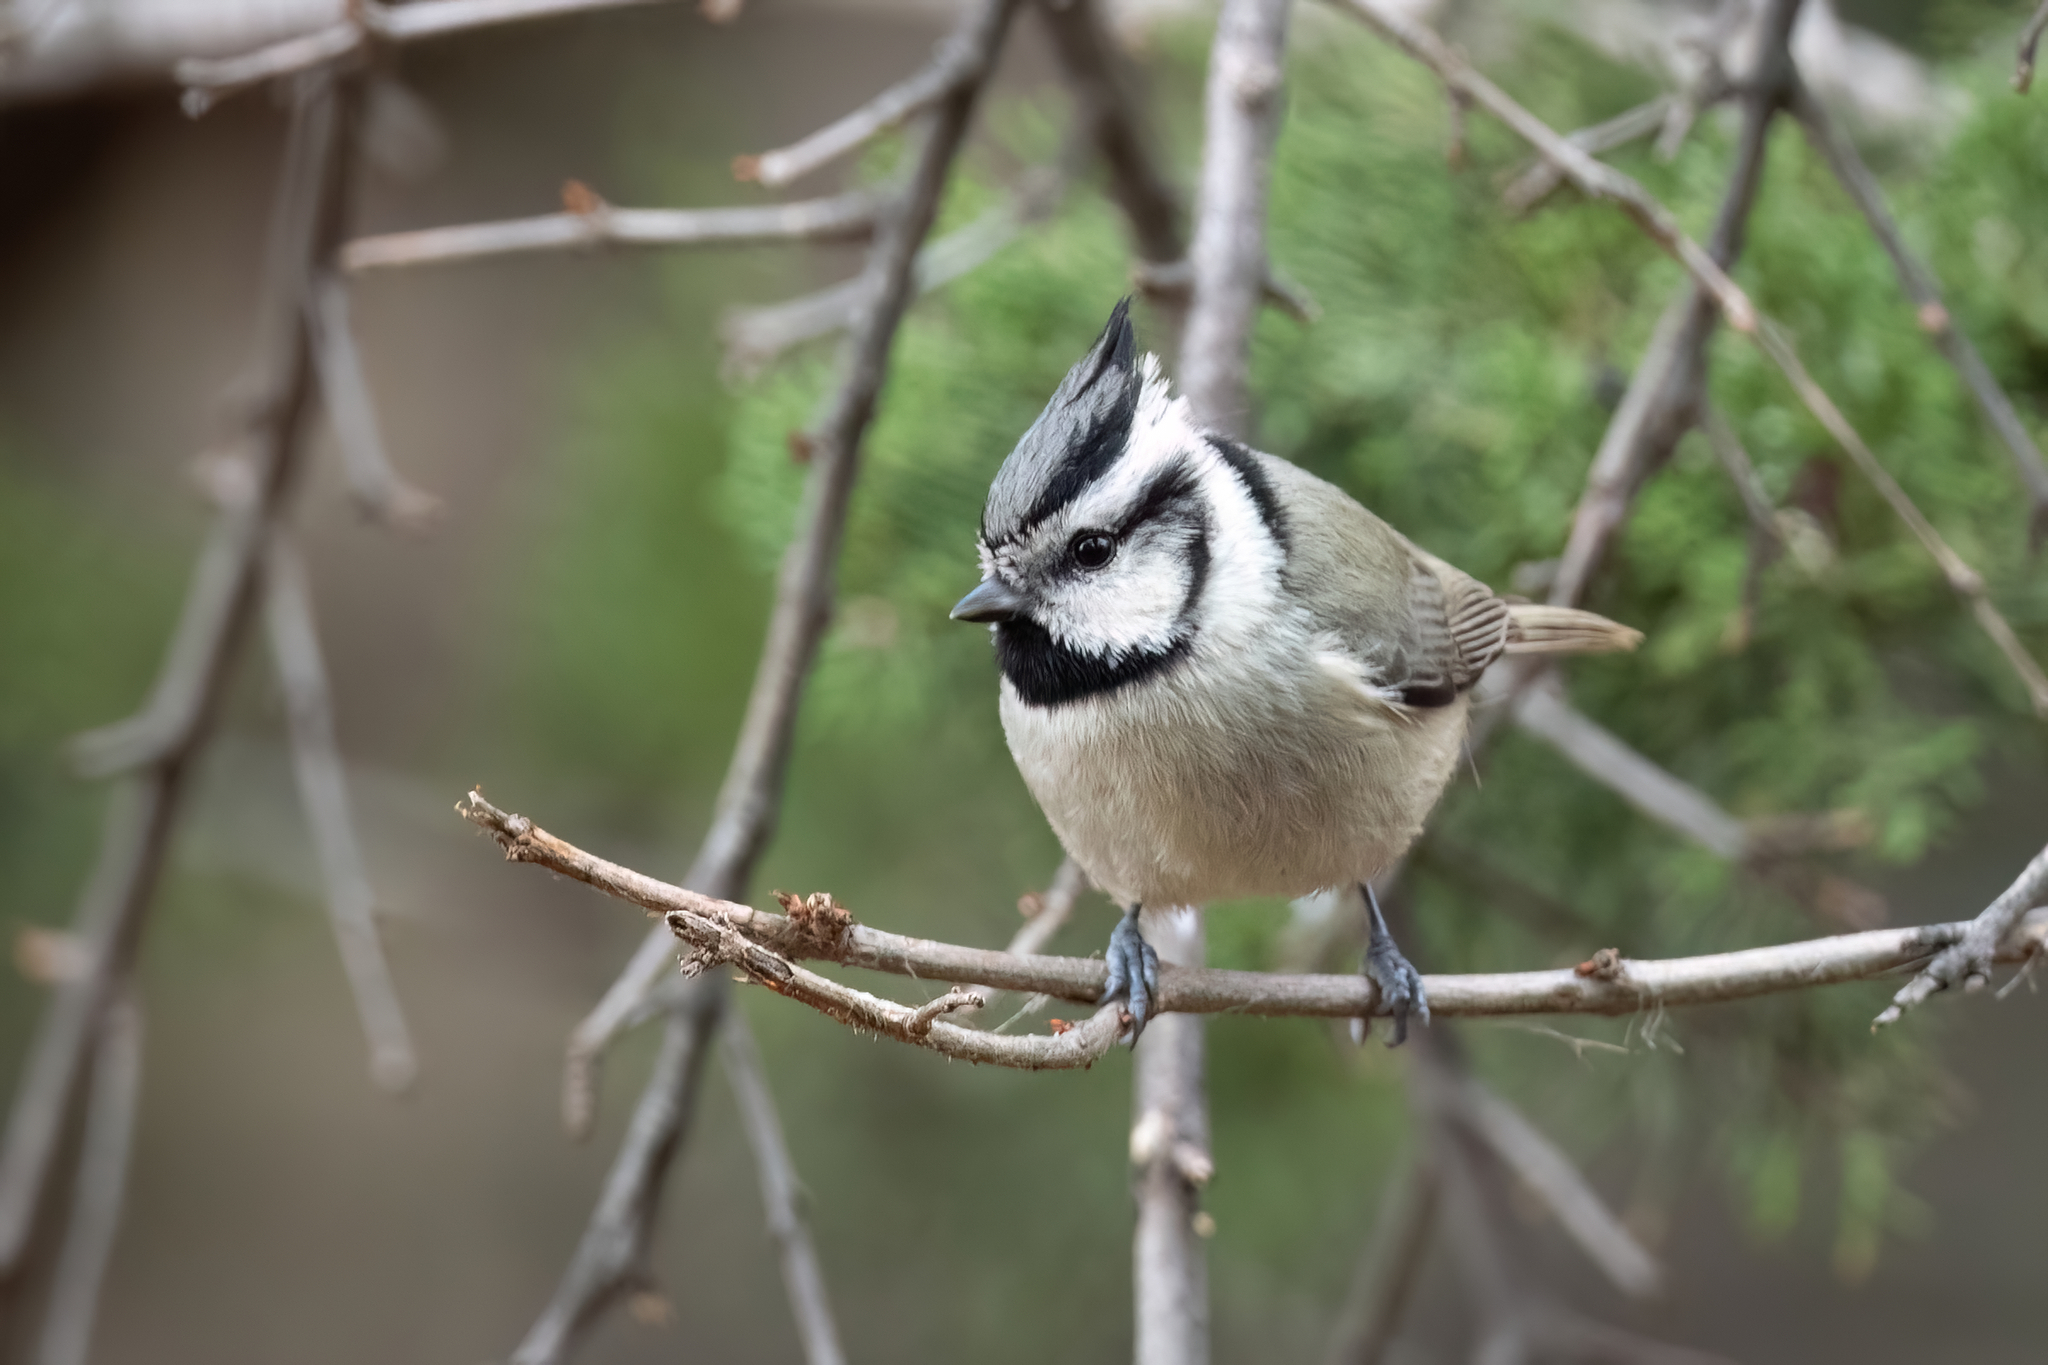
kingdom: Animalia
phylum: Chordata
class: Aves
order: Passeriformes
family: Paridae
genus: Baeolophus
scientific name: Baeolophus wollweberi
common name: Bridled titmouse
